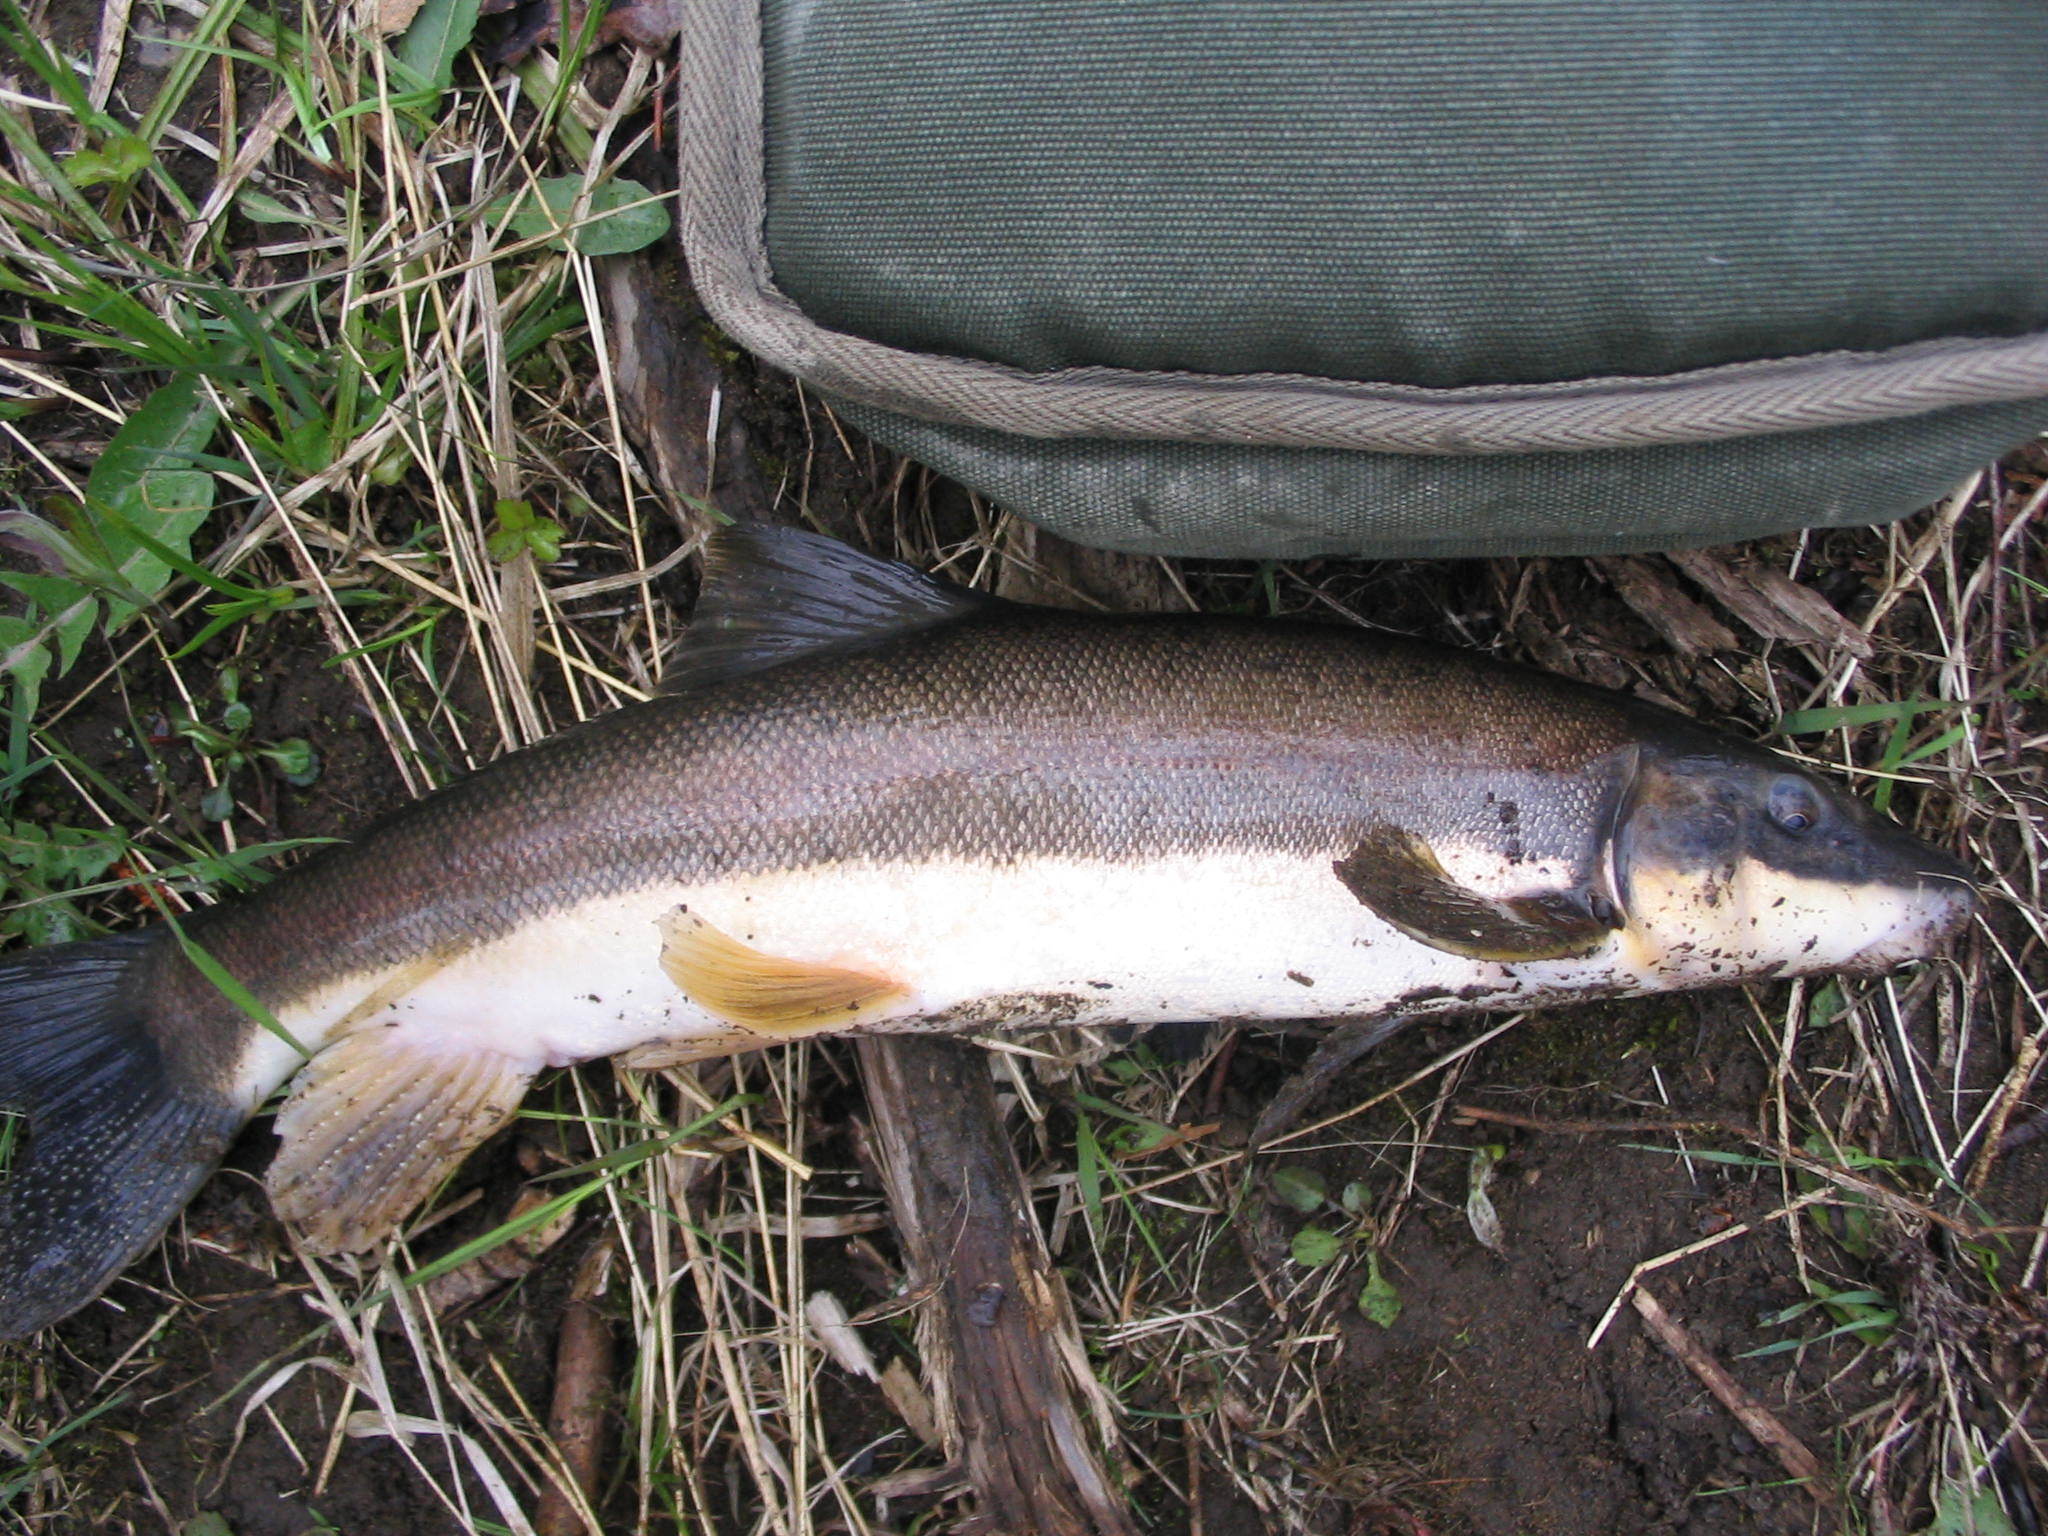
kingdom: Animalia
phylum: Chordata
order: Cypriniformes
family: Catostomidae
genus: Catostomus
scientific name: Catostomus catostomus
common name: Longnose sucker
